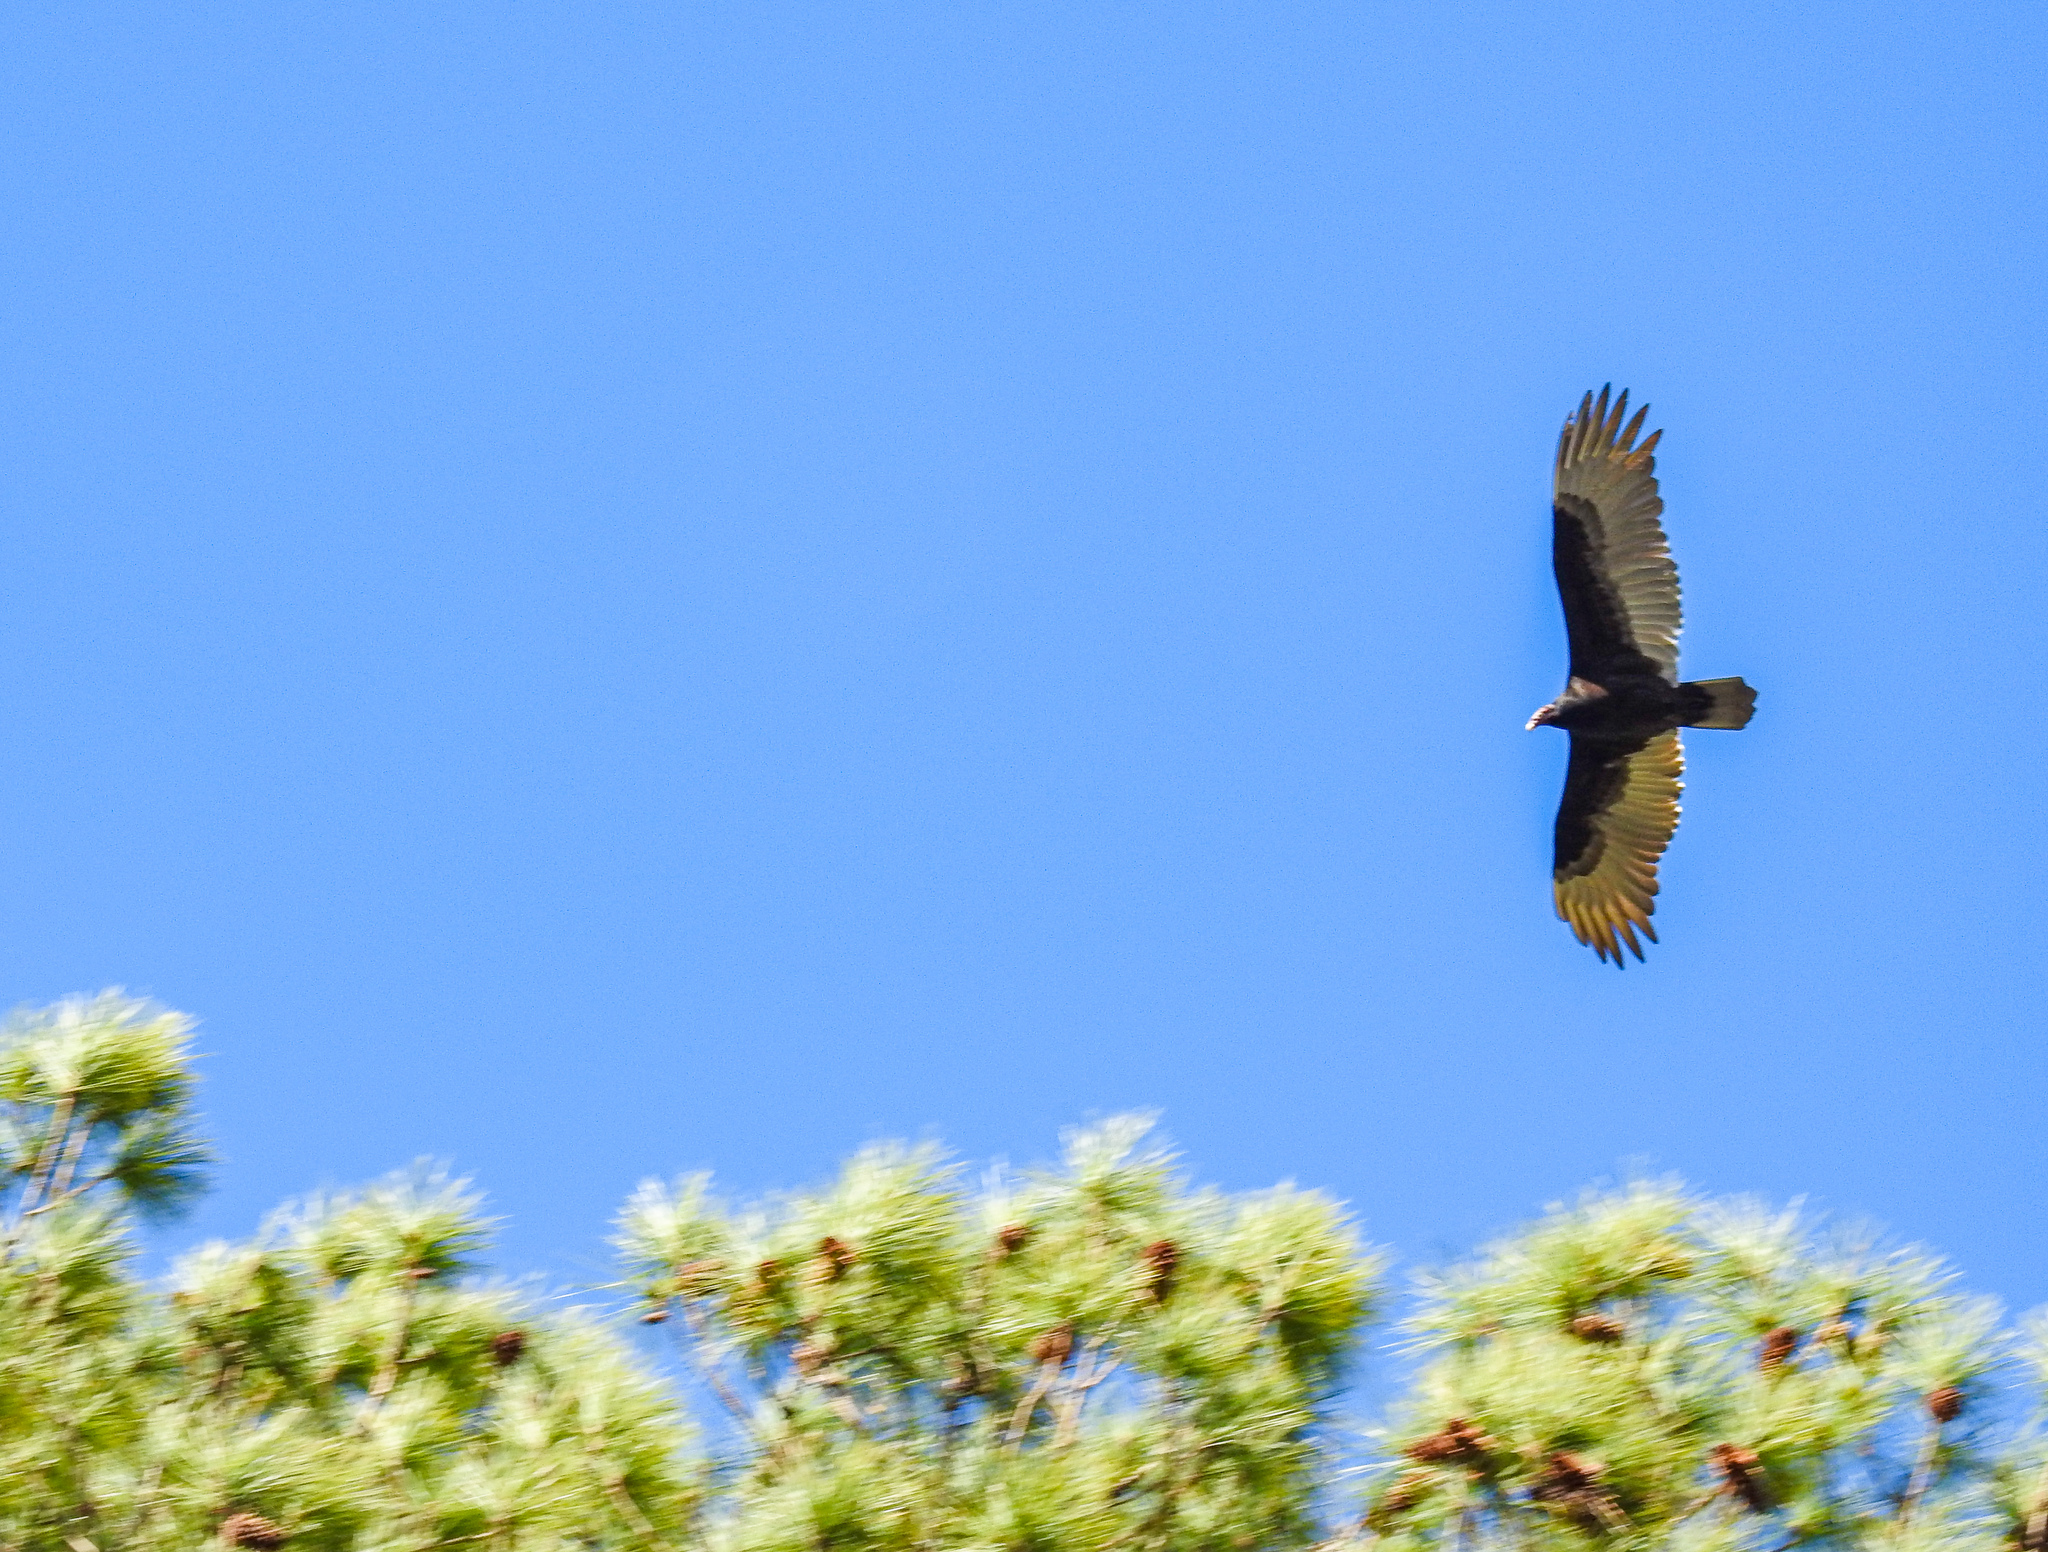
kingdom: Animalia
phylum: Chordata
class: Aves
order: Accipitriformes
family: Cathartidae
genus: Cathartes
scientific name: Cathartes aura
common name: Turkey vulture
